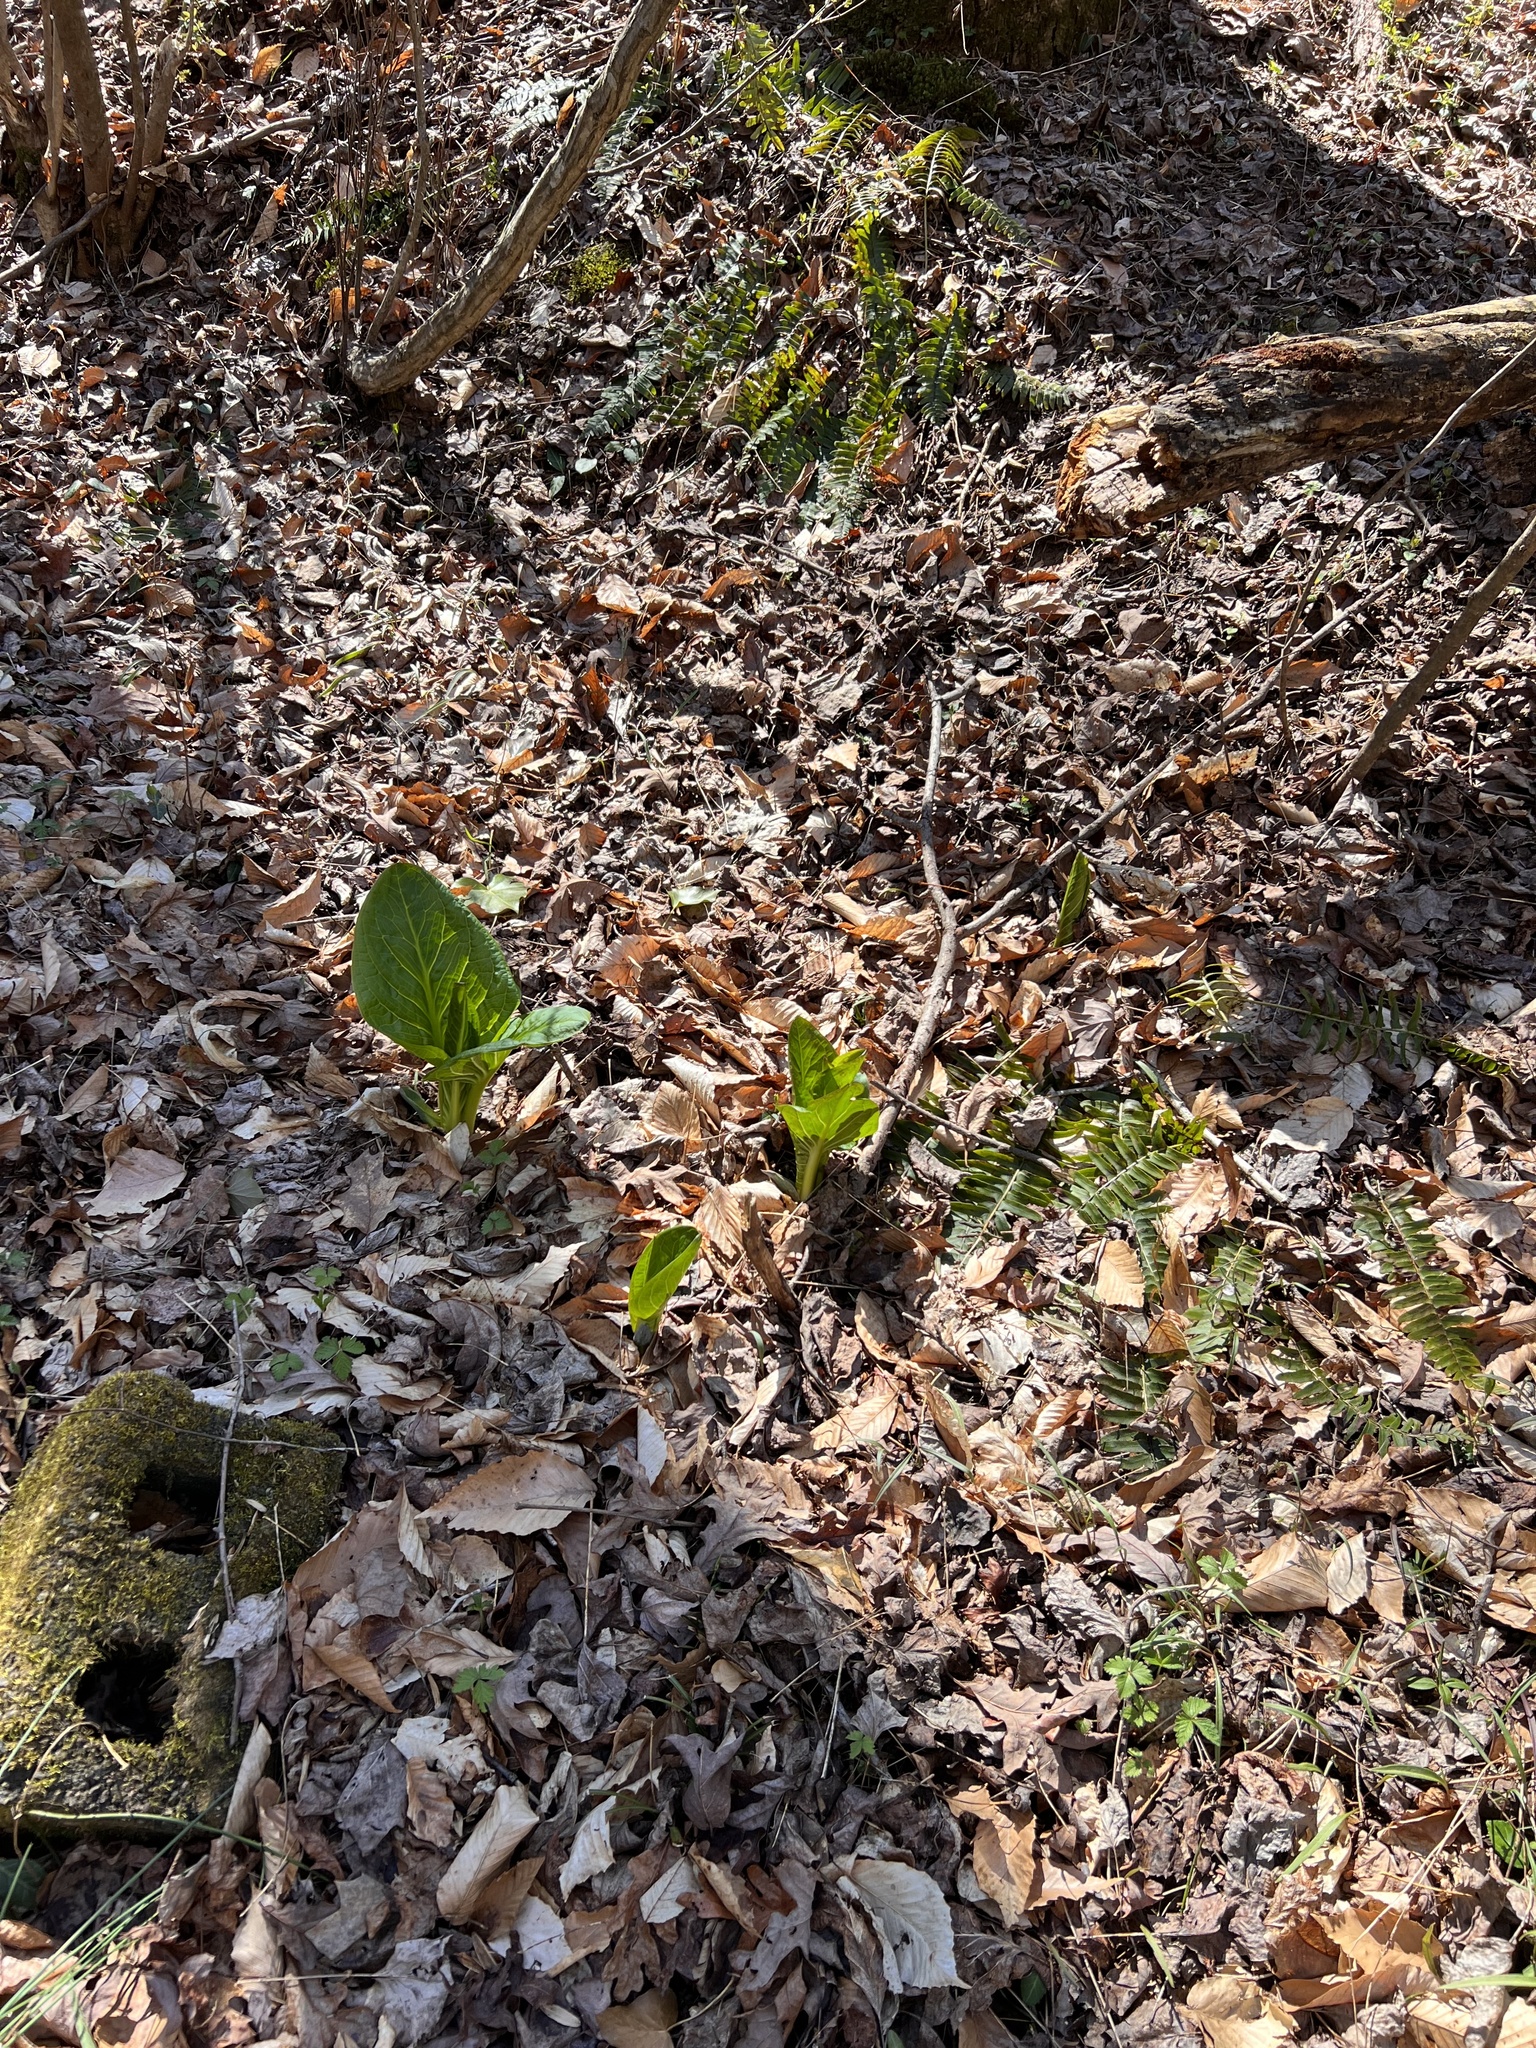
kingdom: Plantae
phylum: Tracheophyta
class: Liliopsida
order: Alismatales
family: Araceae
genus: Symplocarpus
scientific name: Symplocarpus foetidus
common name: Eastern skunk cabbage
